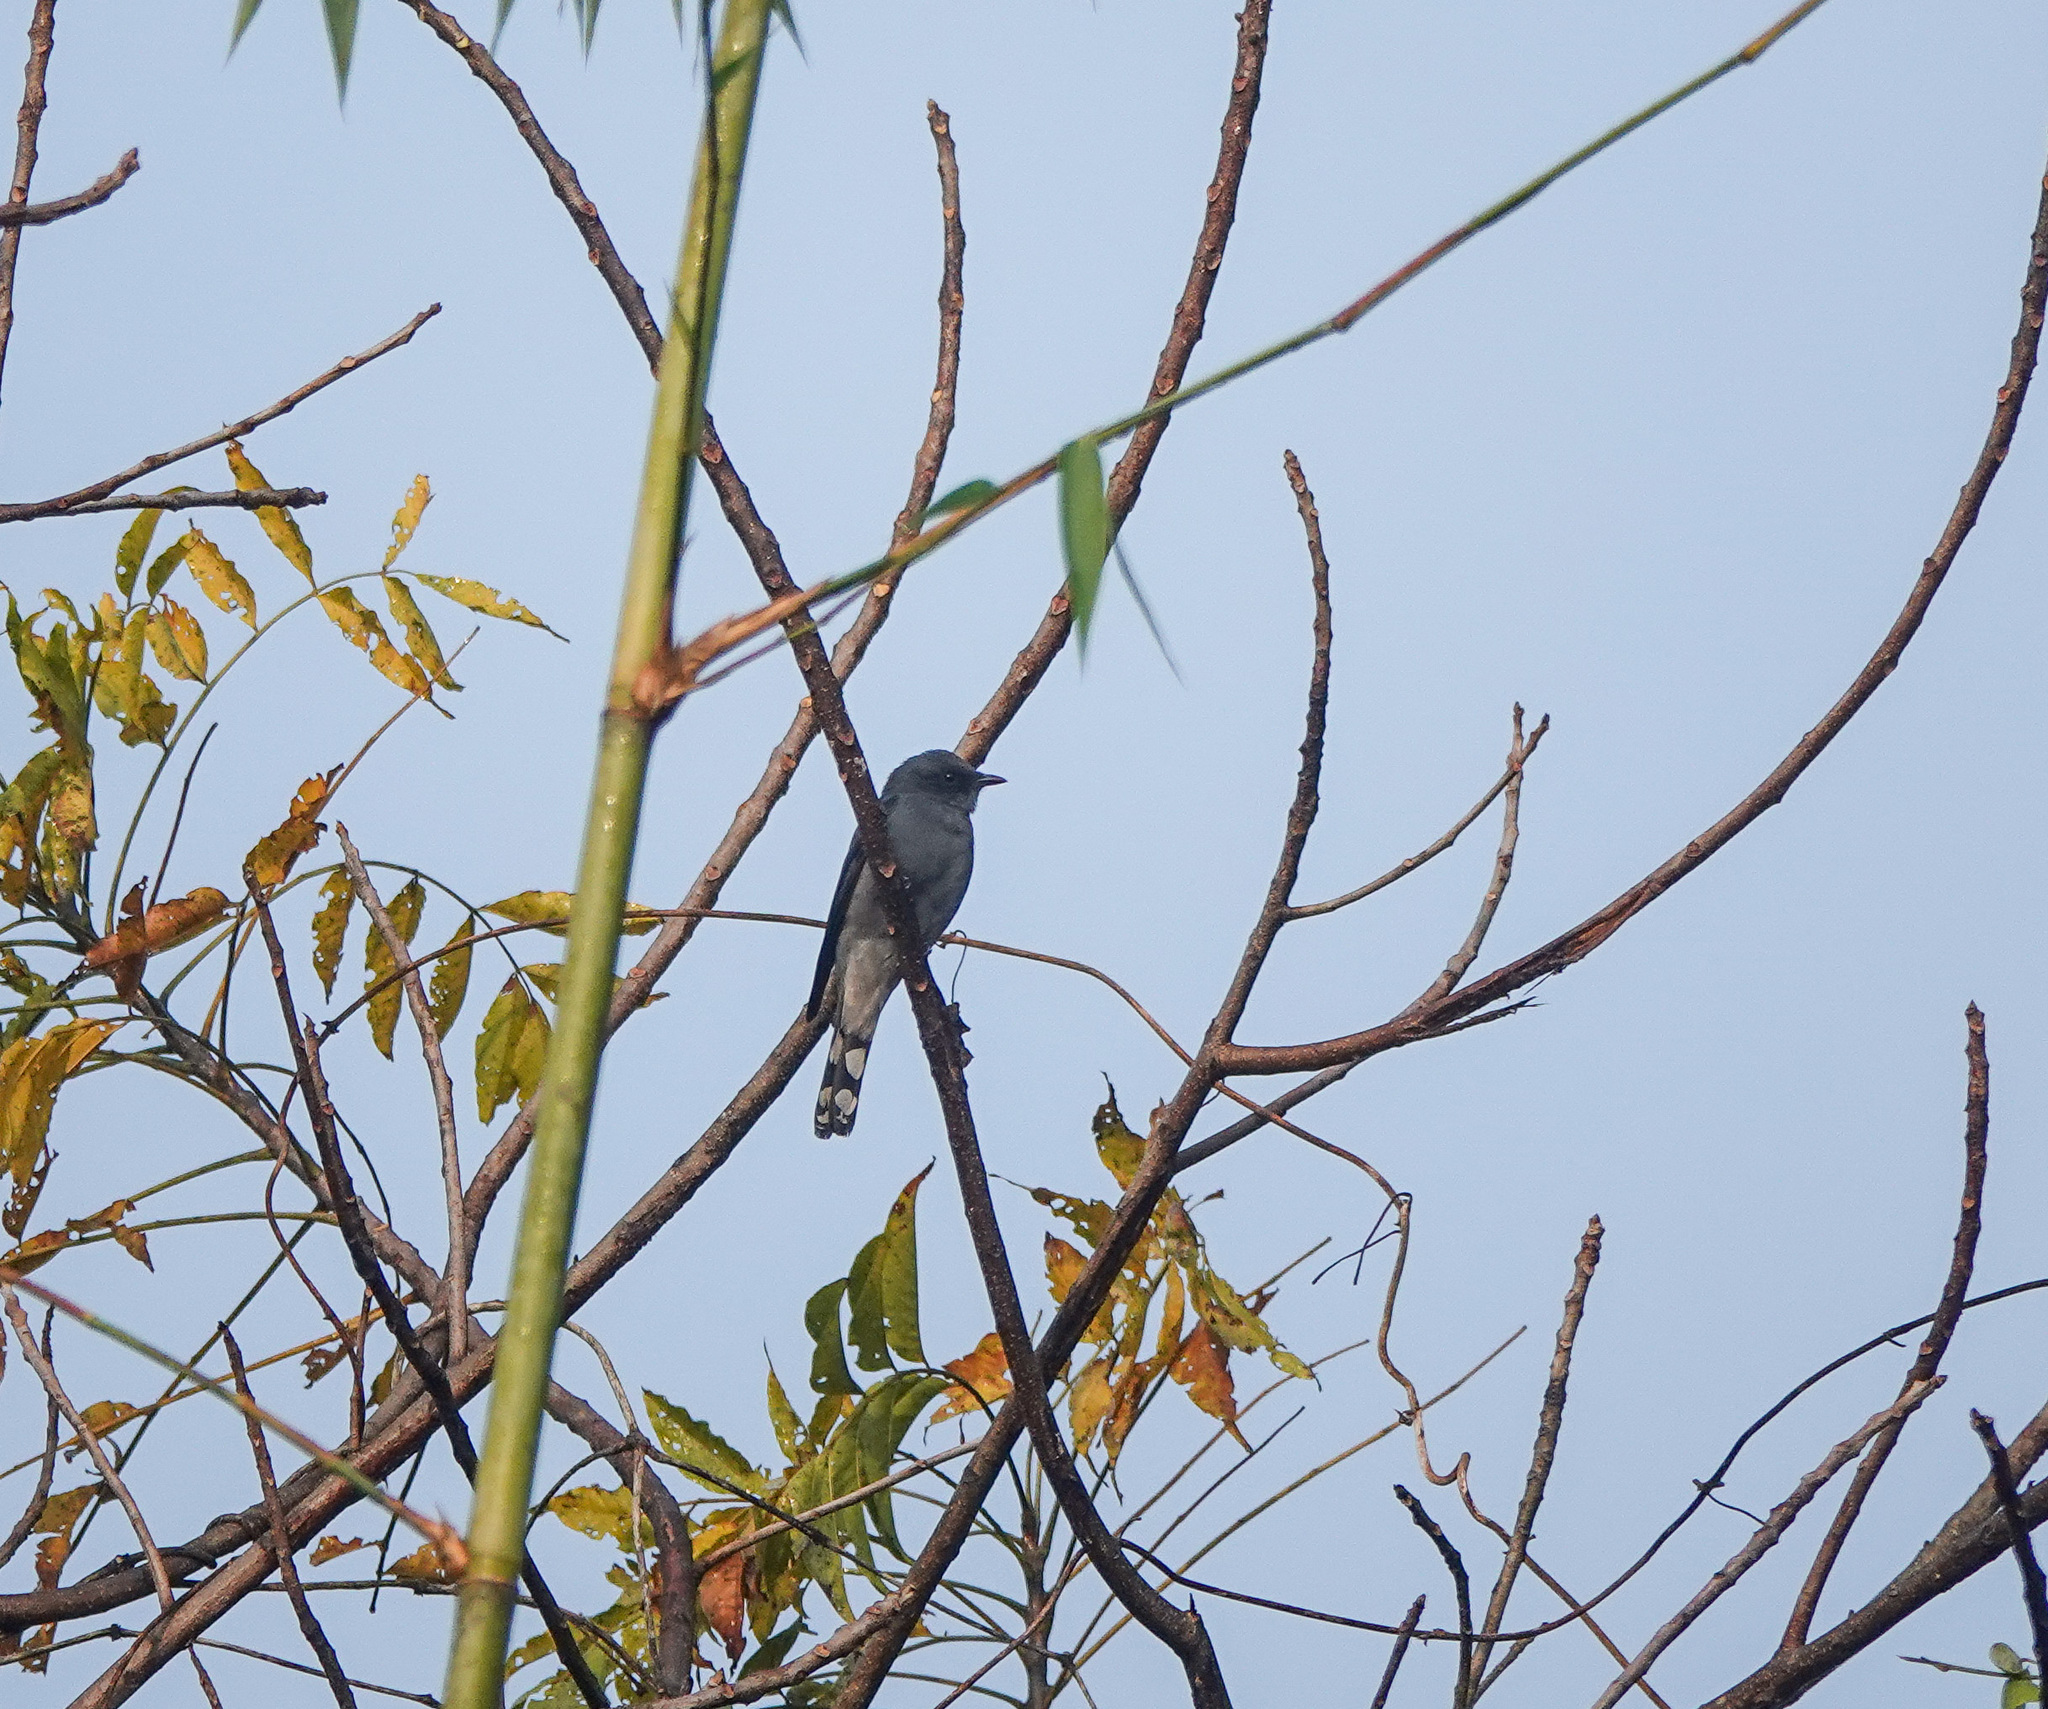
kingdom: Animalia
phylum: Chordata
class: Aves
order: Passeriformes
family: Campephagidae
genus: Coracina
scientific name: Coracina melaschistos
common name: Black-winged cuckooshrike
